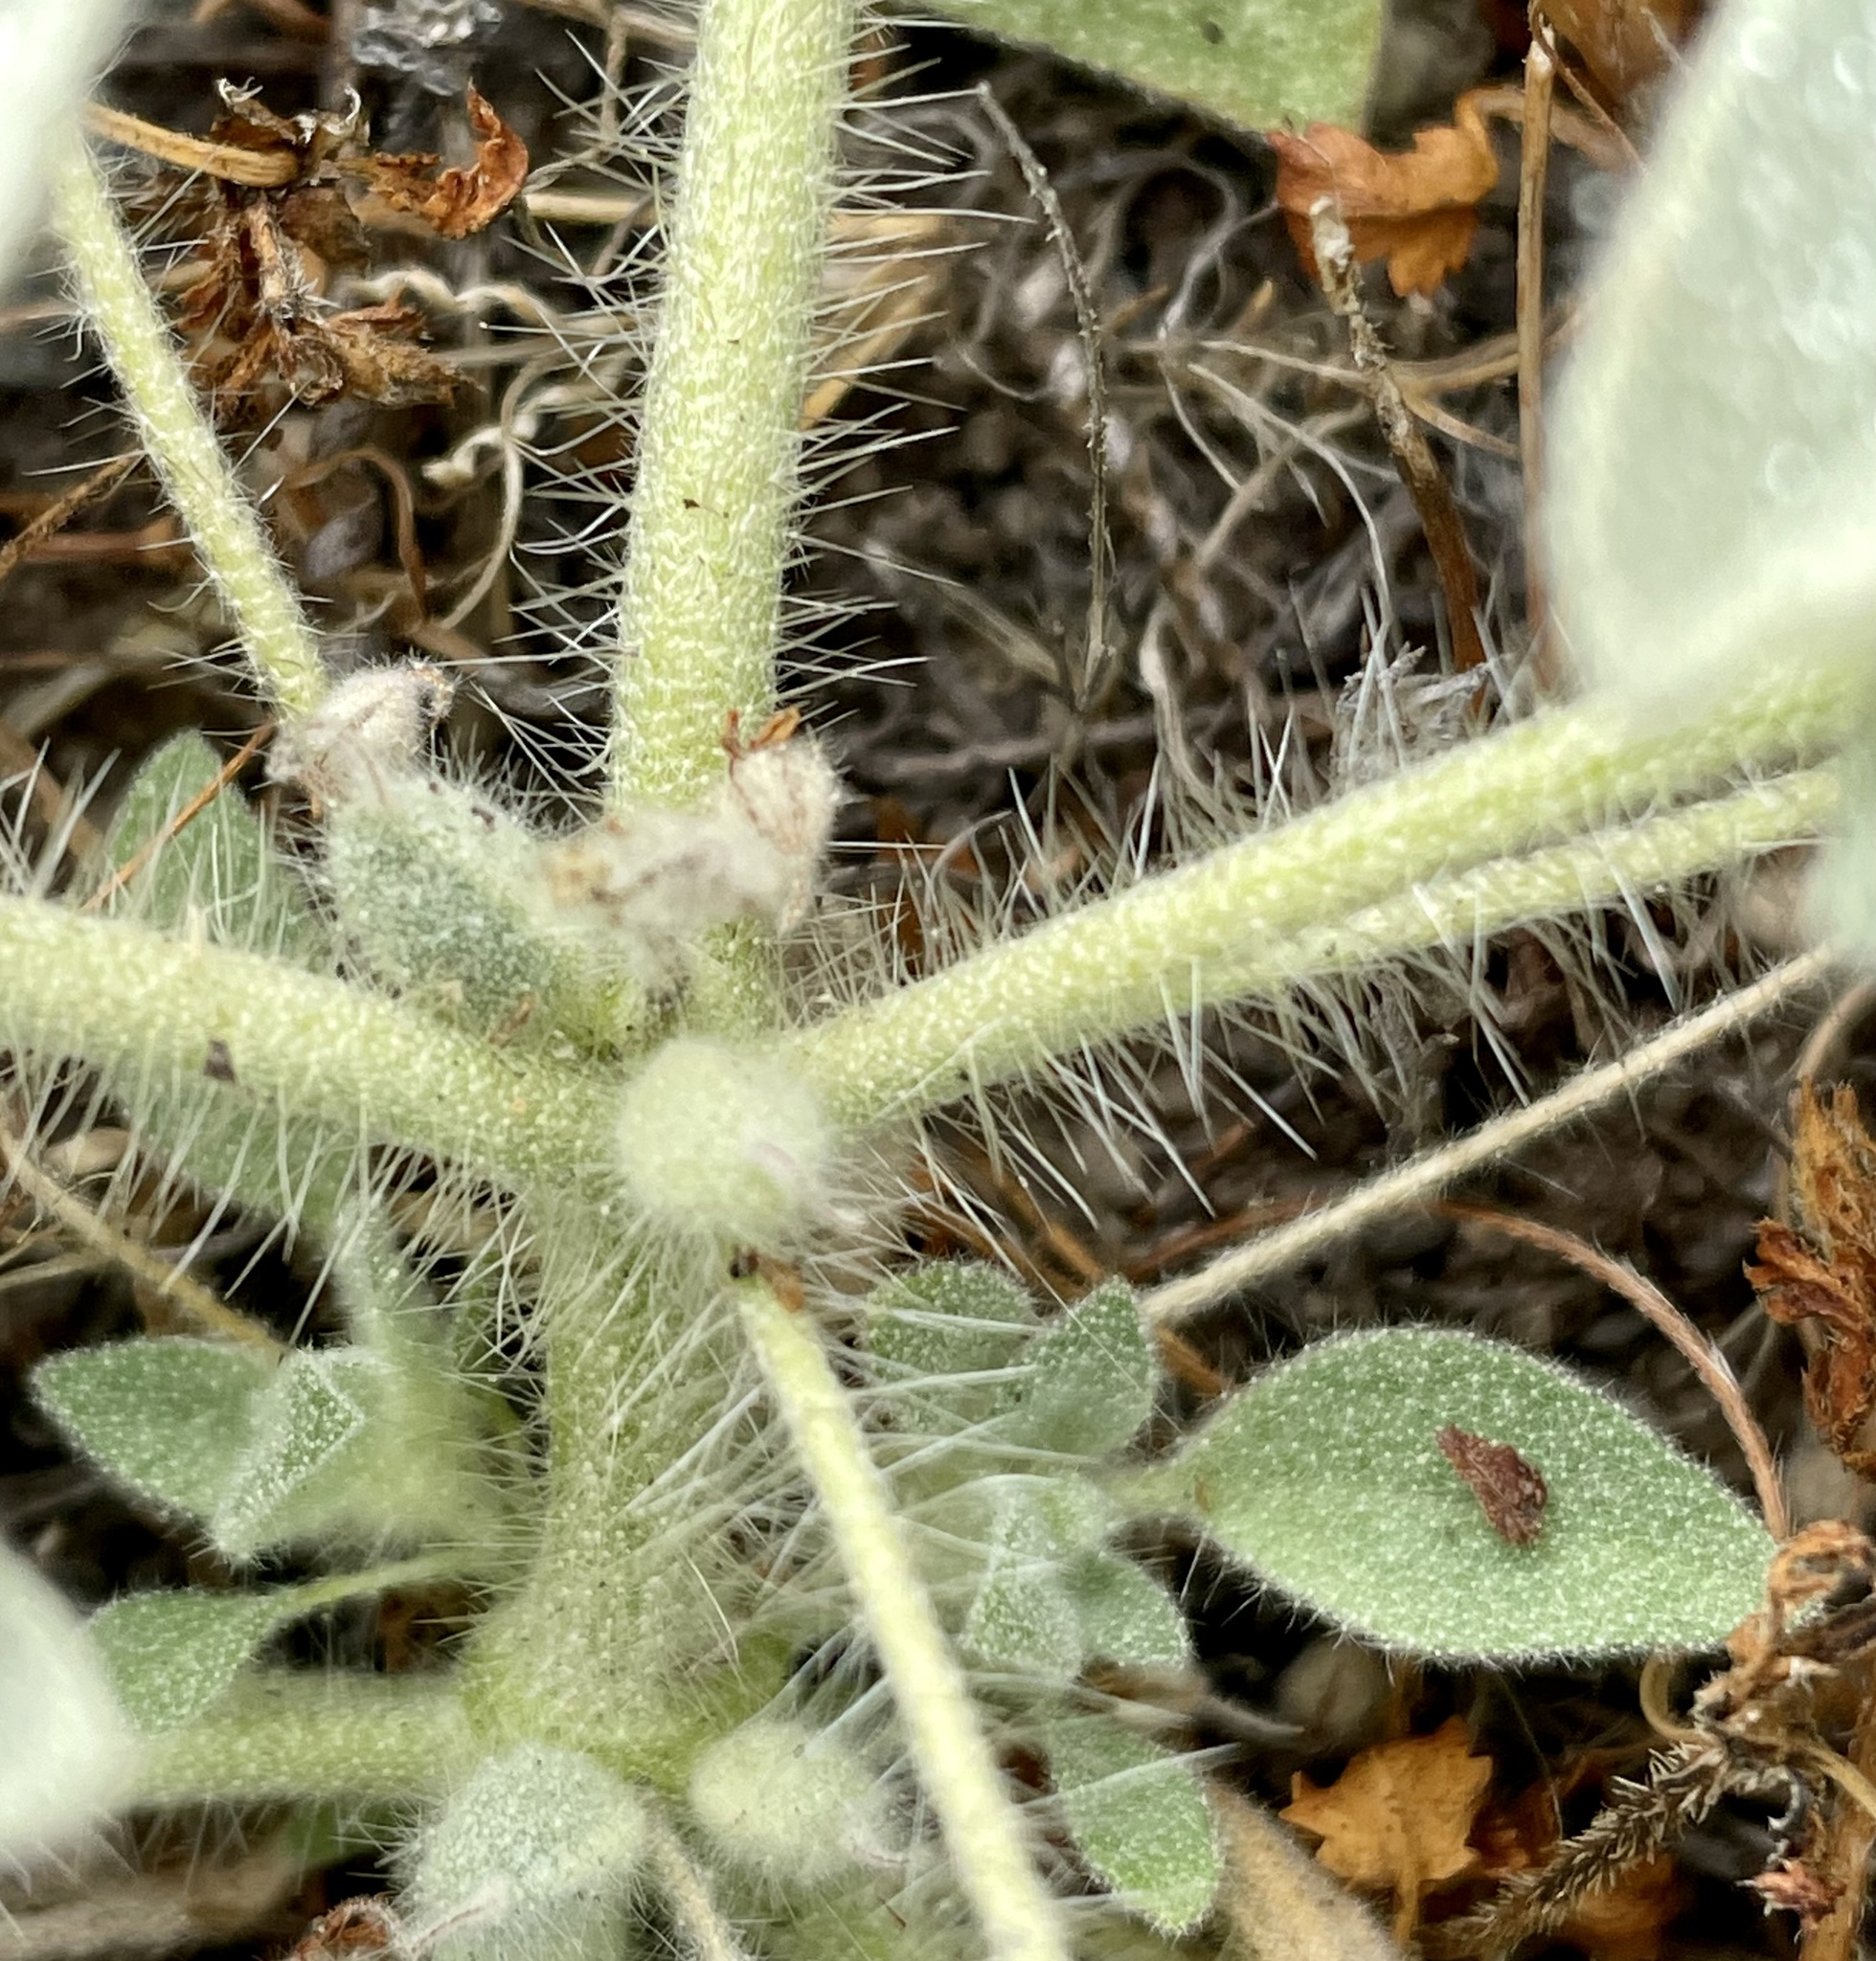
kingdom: Plantae
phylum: Tracheophyta
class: Magnoliopsida
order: Malpighiales
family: Euphorbiaceae
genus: Croton
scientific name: Croton setiger
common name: Dove weed
